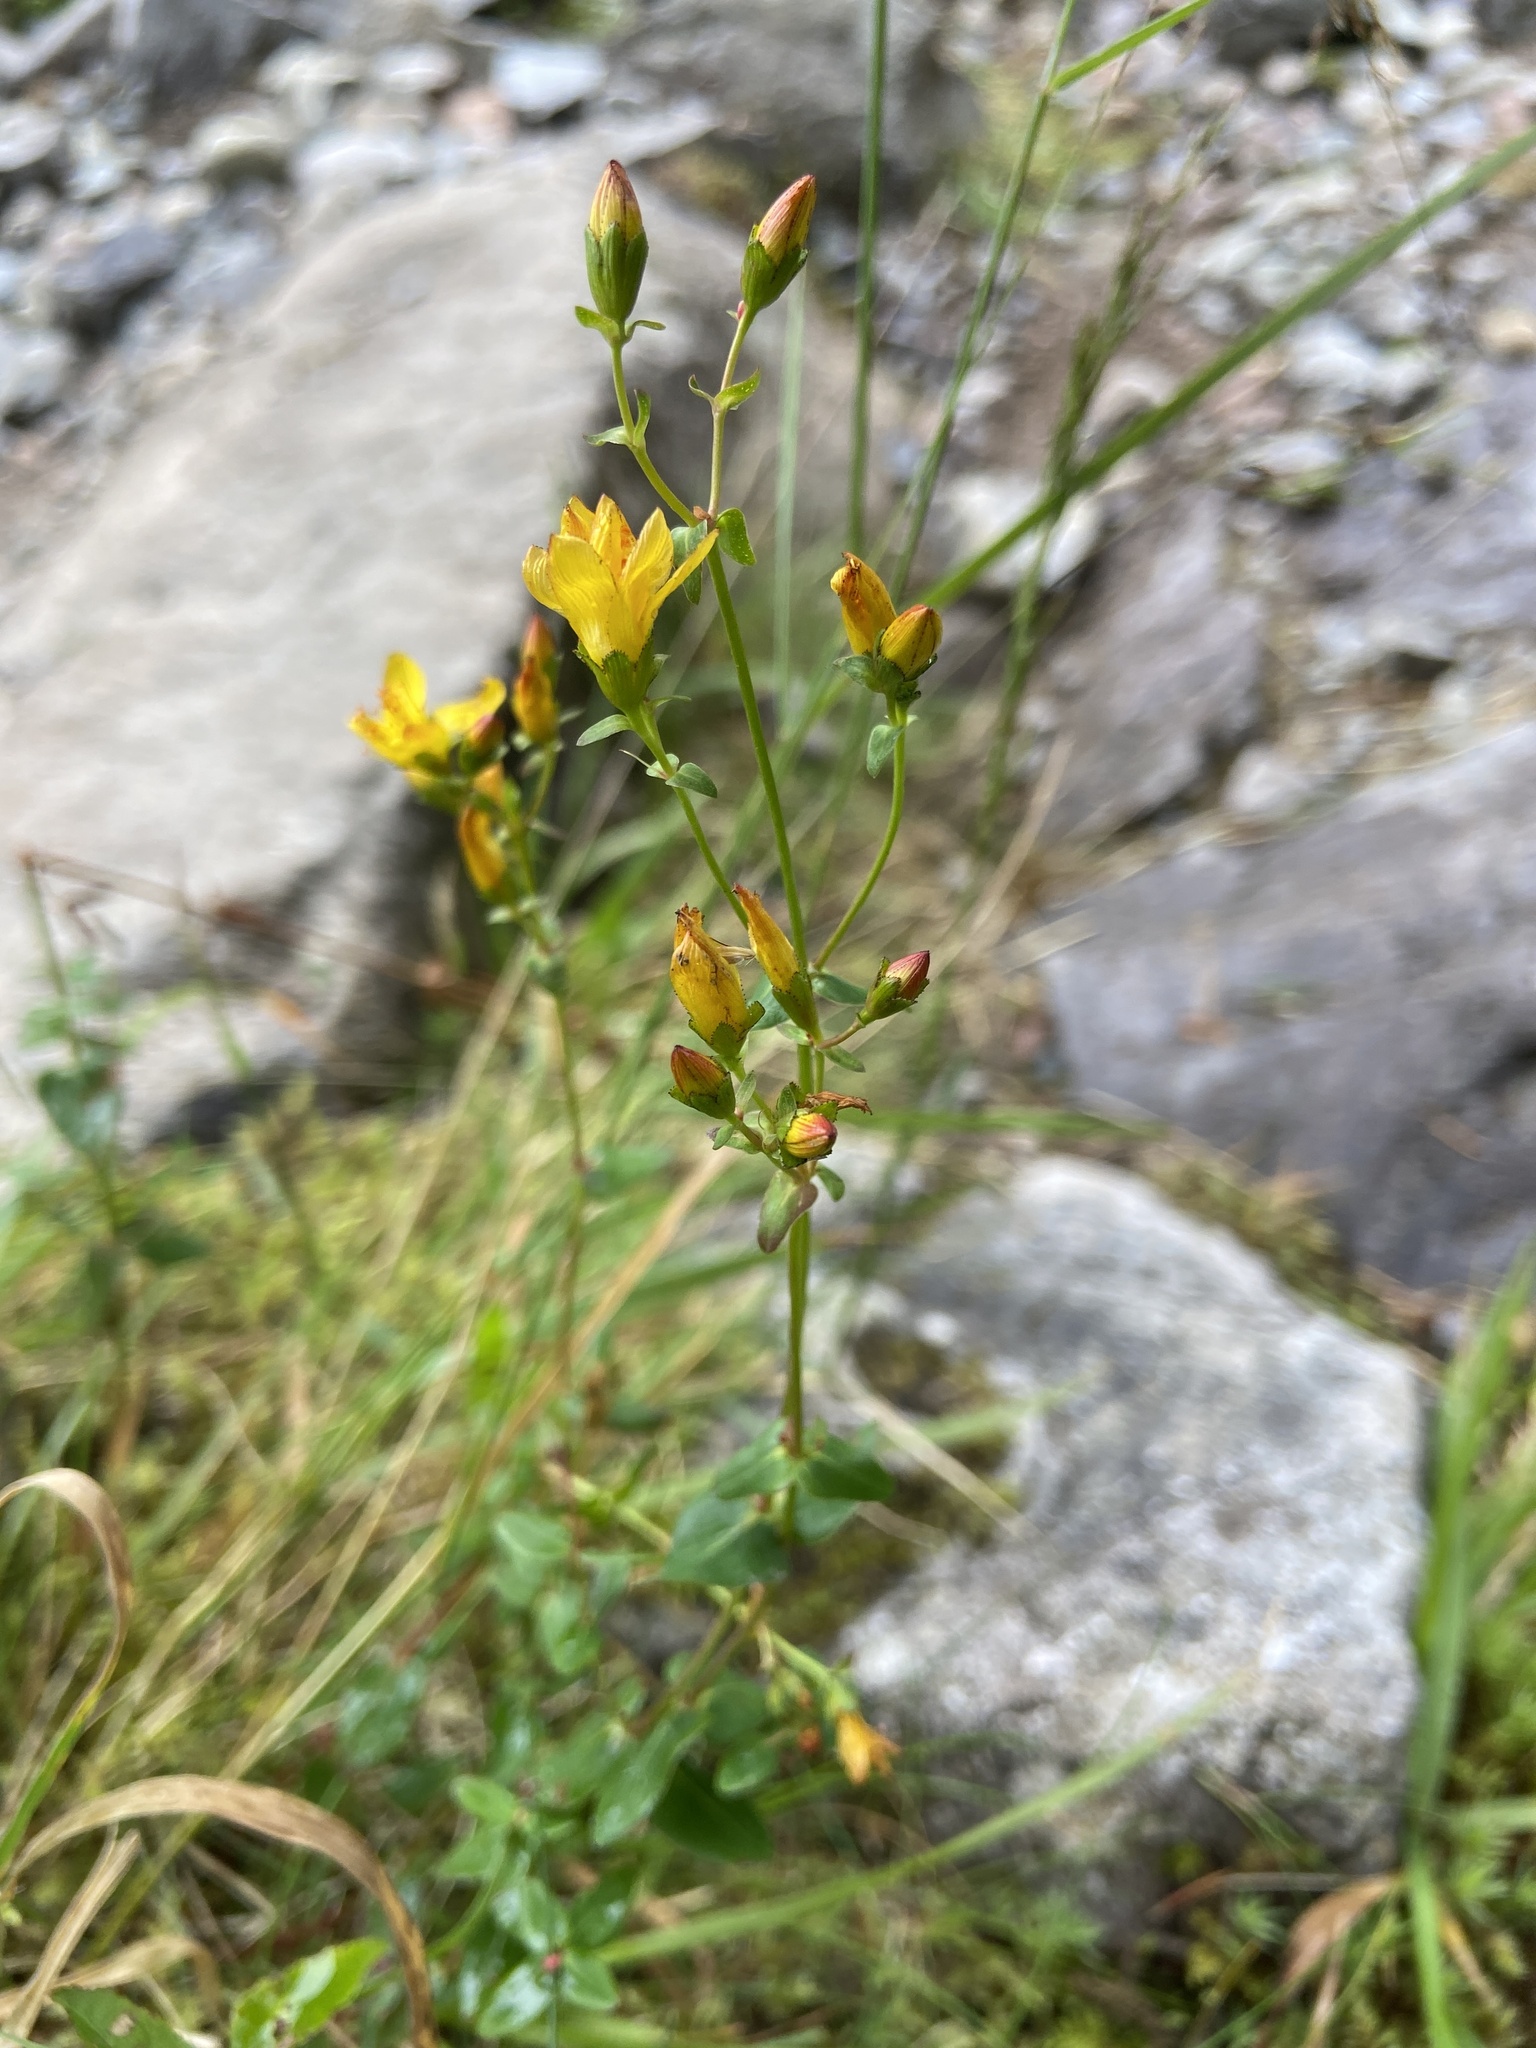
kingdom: Plantae
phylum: Tracheophyta
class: Magnoliopsida
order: Malpighiales
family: Hypericaceae
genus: Hypericum
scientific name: Hypericum pulchrum
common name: Slender st. john's-wort
